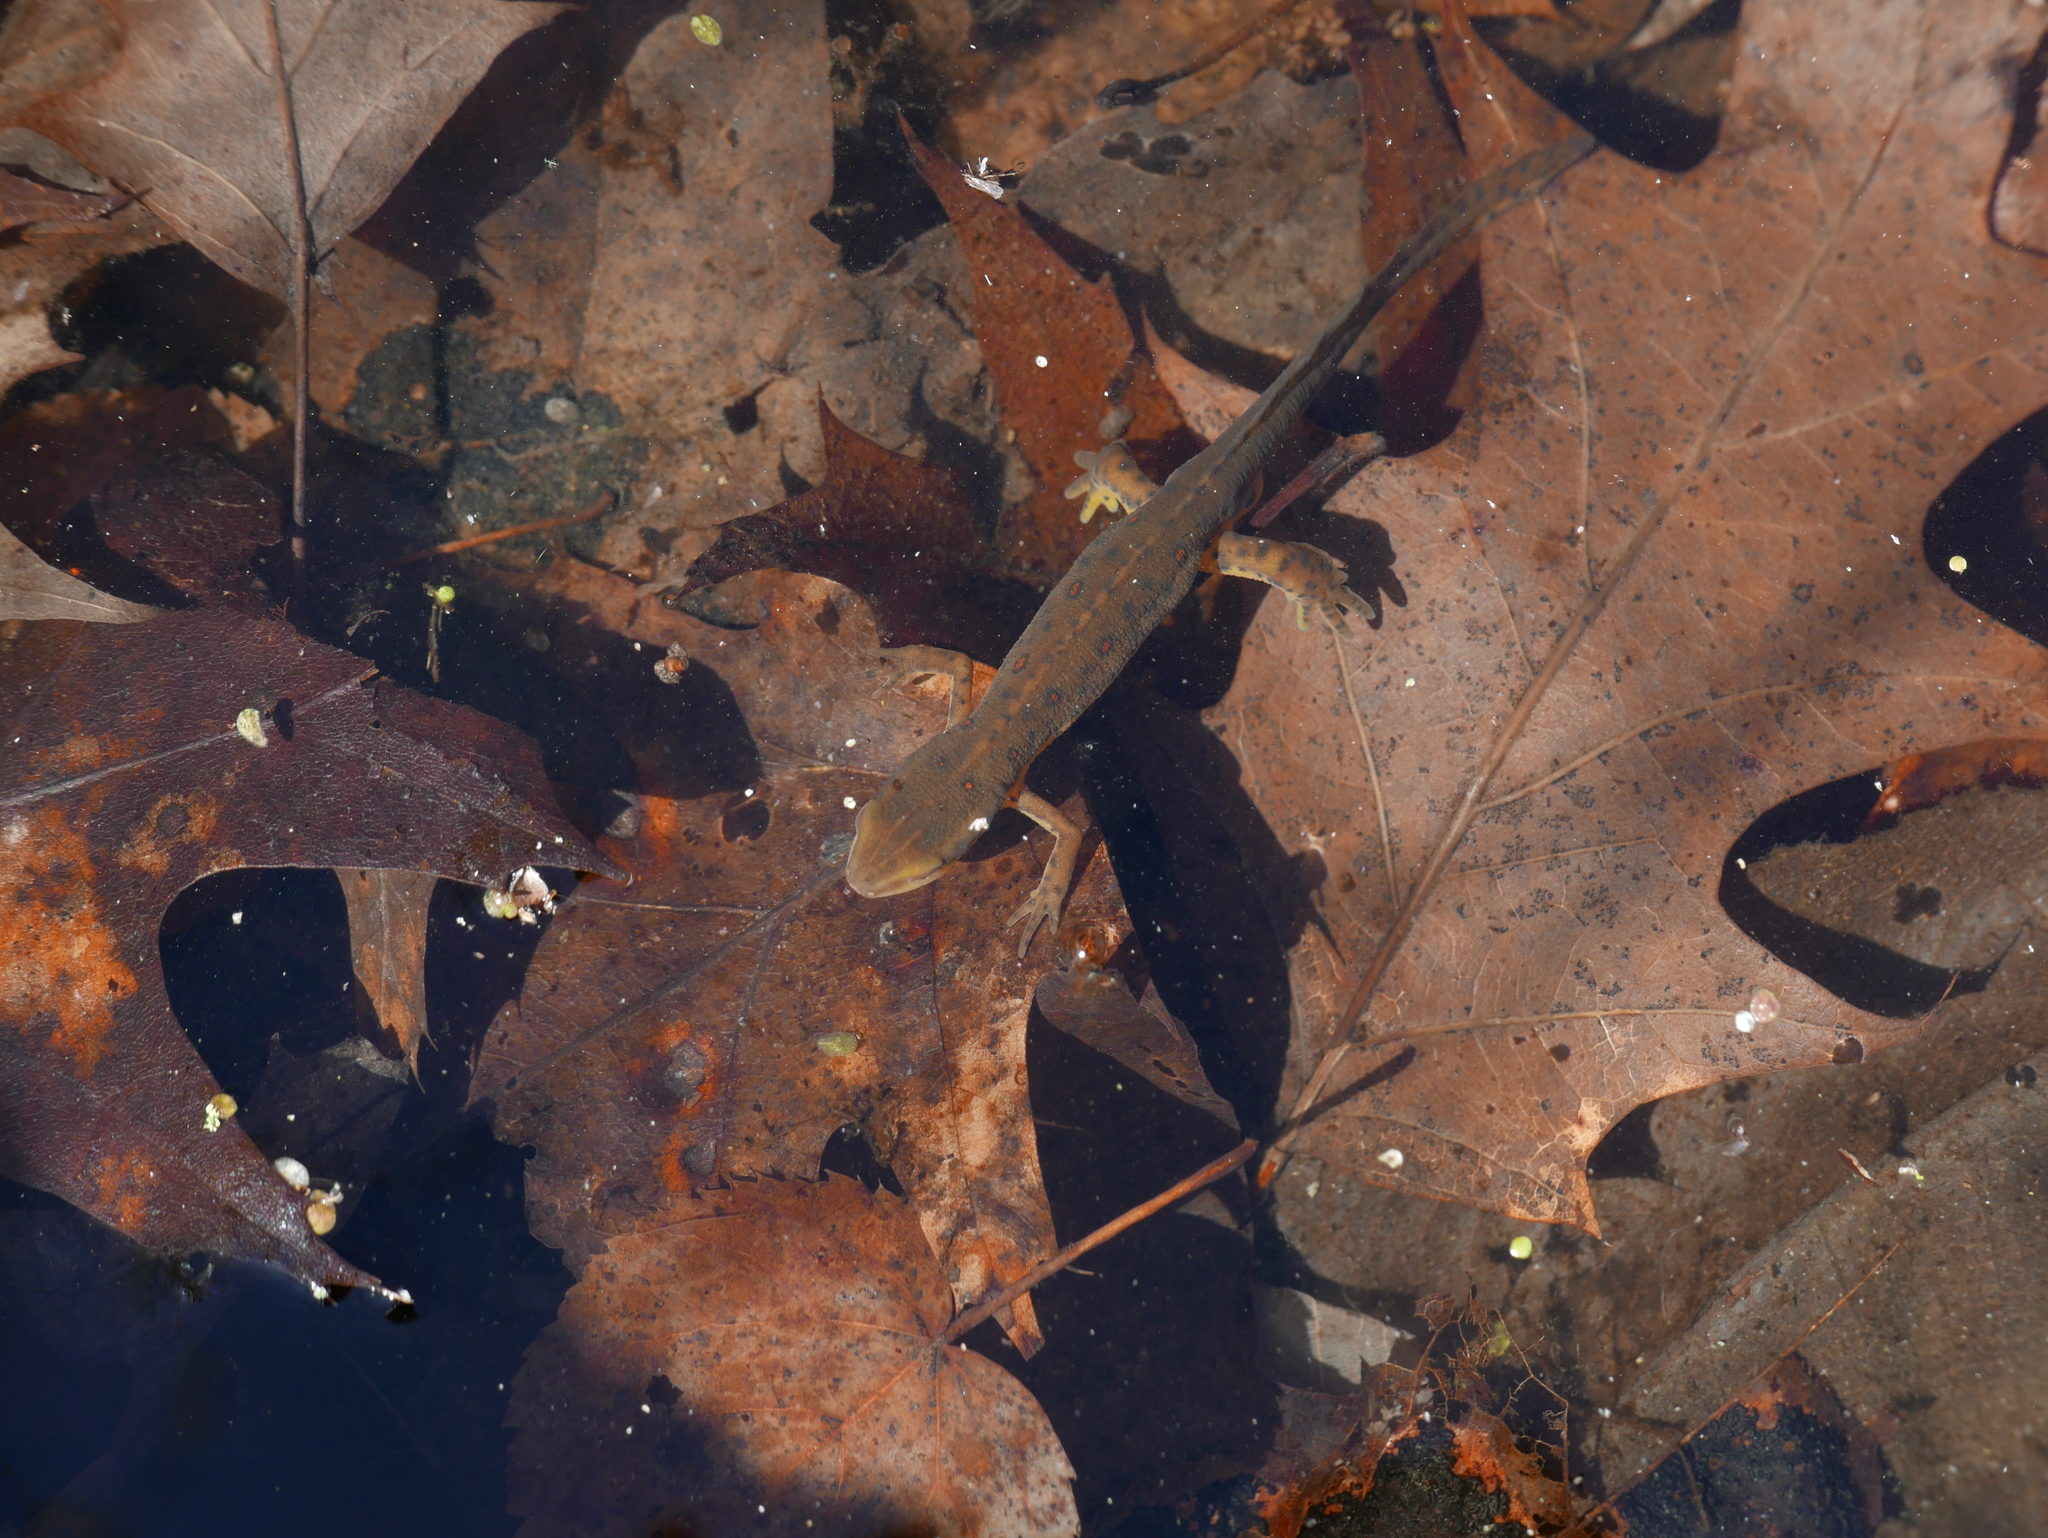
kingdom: Animalia
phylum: Chordata
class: Amphibia
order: Caudata
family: Salamandridae
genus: Notophthalmus
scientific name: Notophthalmus viridescens
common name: Eastern newt
